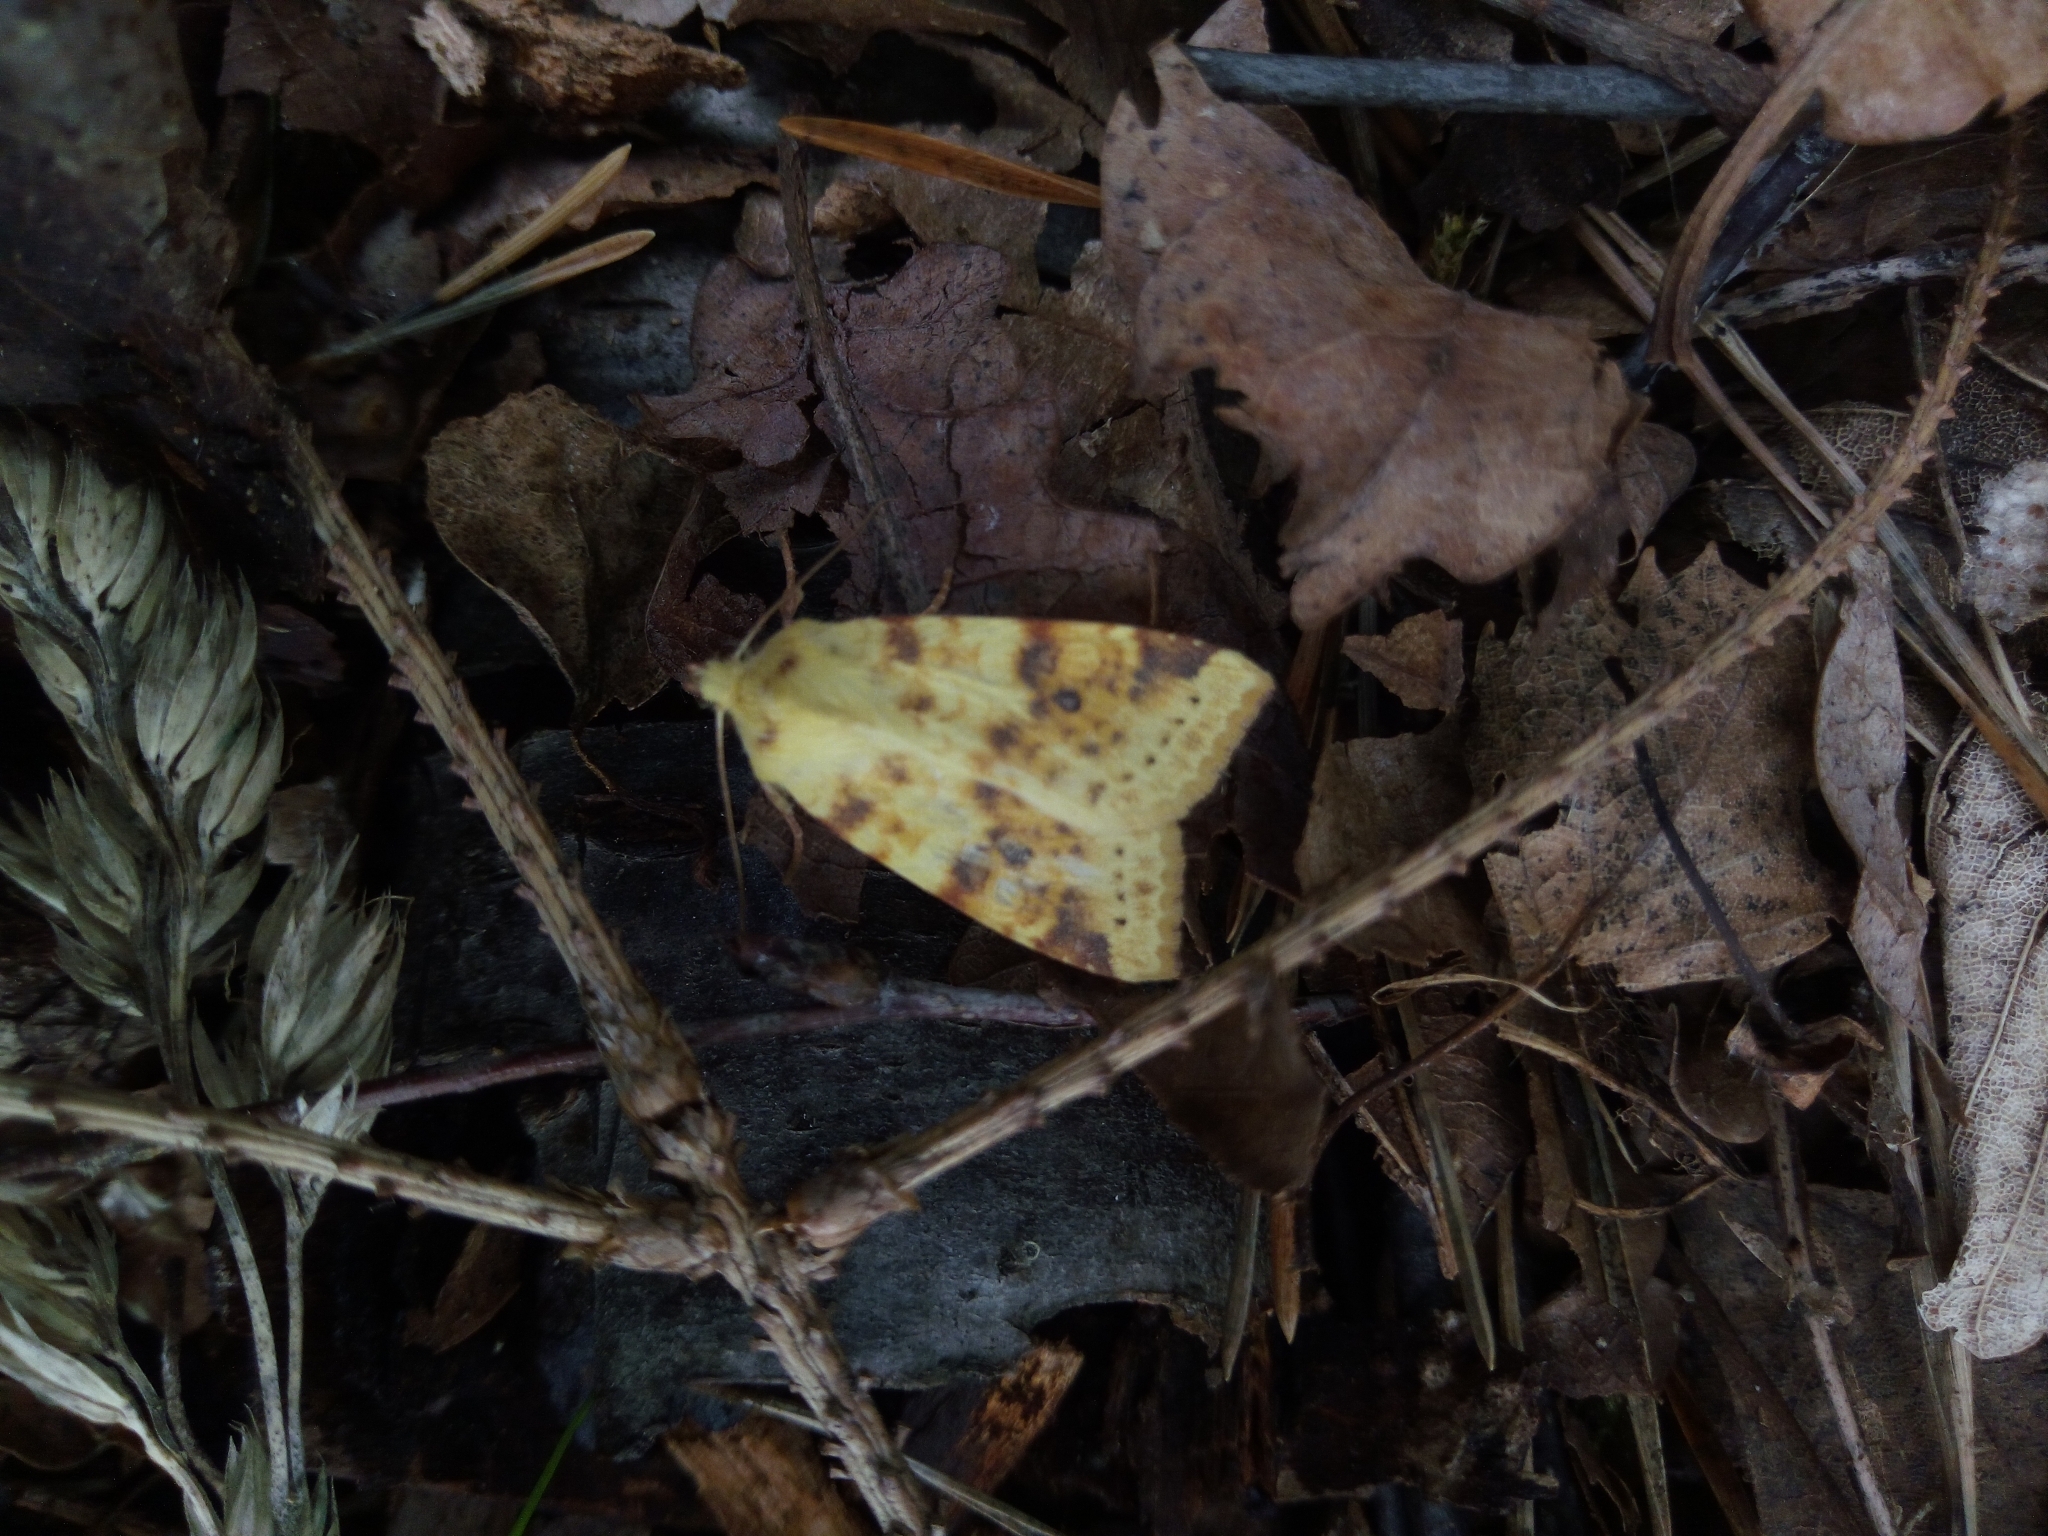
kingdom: Animalia
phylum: Arthropoda
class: Insecta
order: Lepidoptera
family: Noctuidae
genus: Xanthia
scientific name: Xanthia icteritia
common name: The sallow
